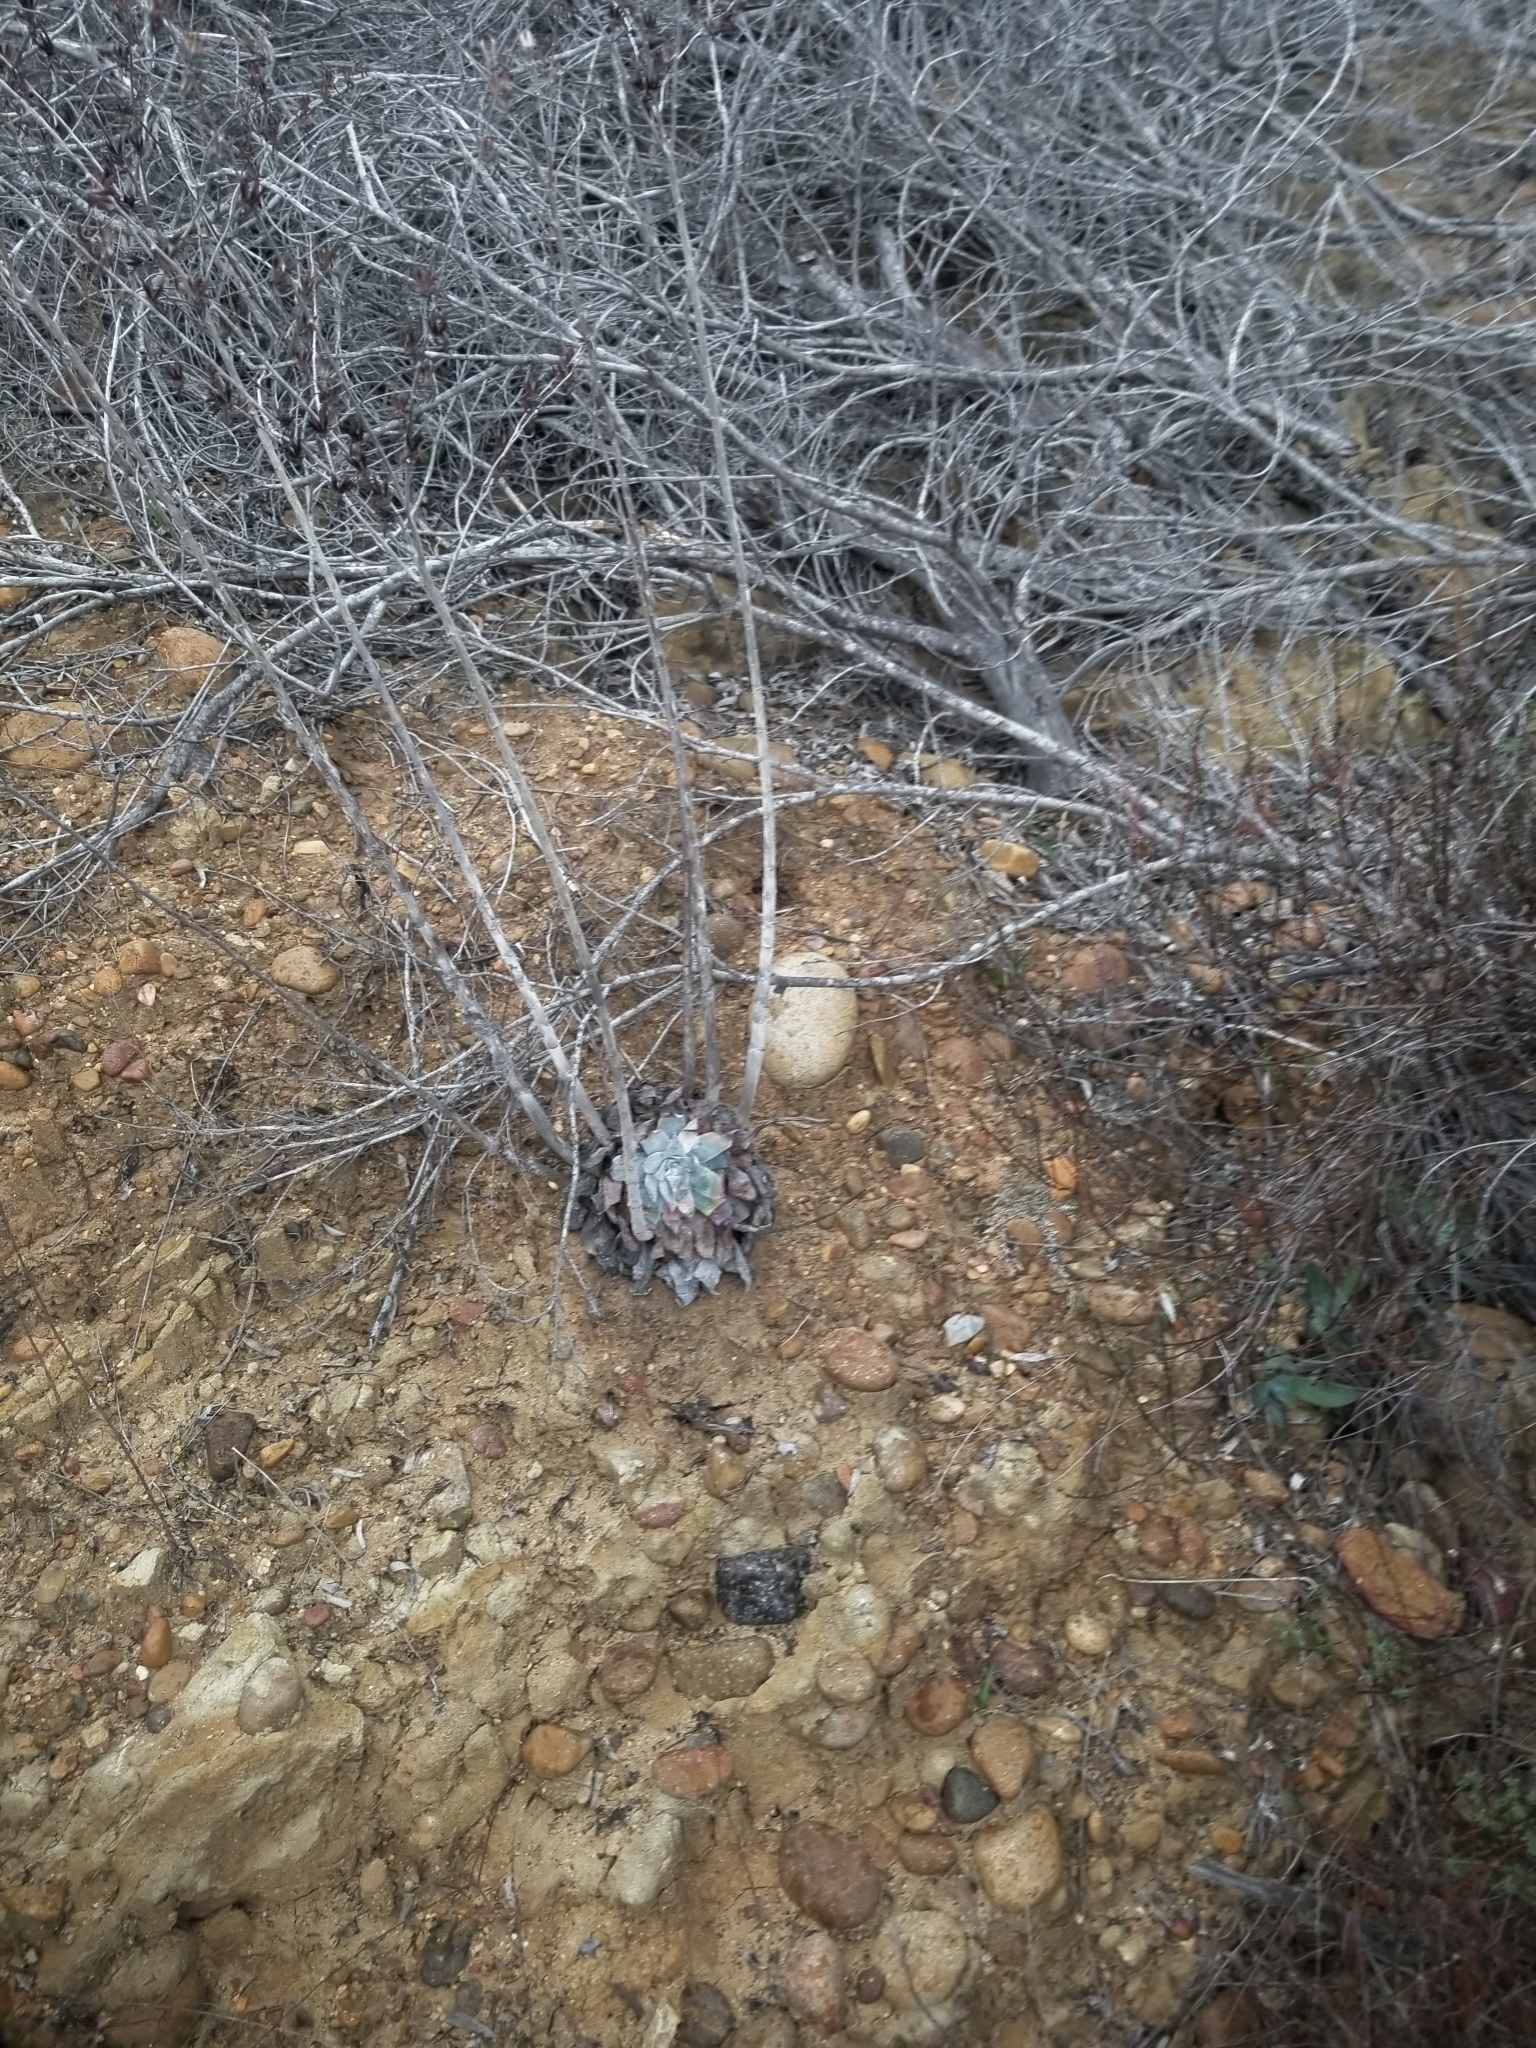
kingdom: Plantae
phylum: Tracheophyta
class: Magnoliopsida
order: Saxifragales
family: Crassulaceae
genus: Dudleya
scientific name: Dudleya pulverulenta
